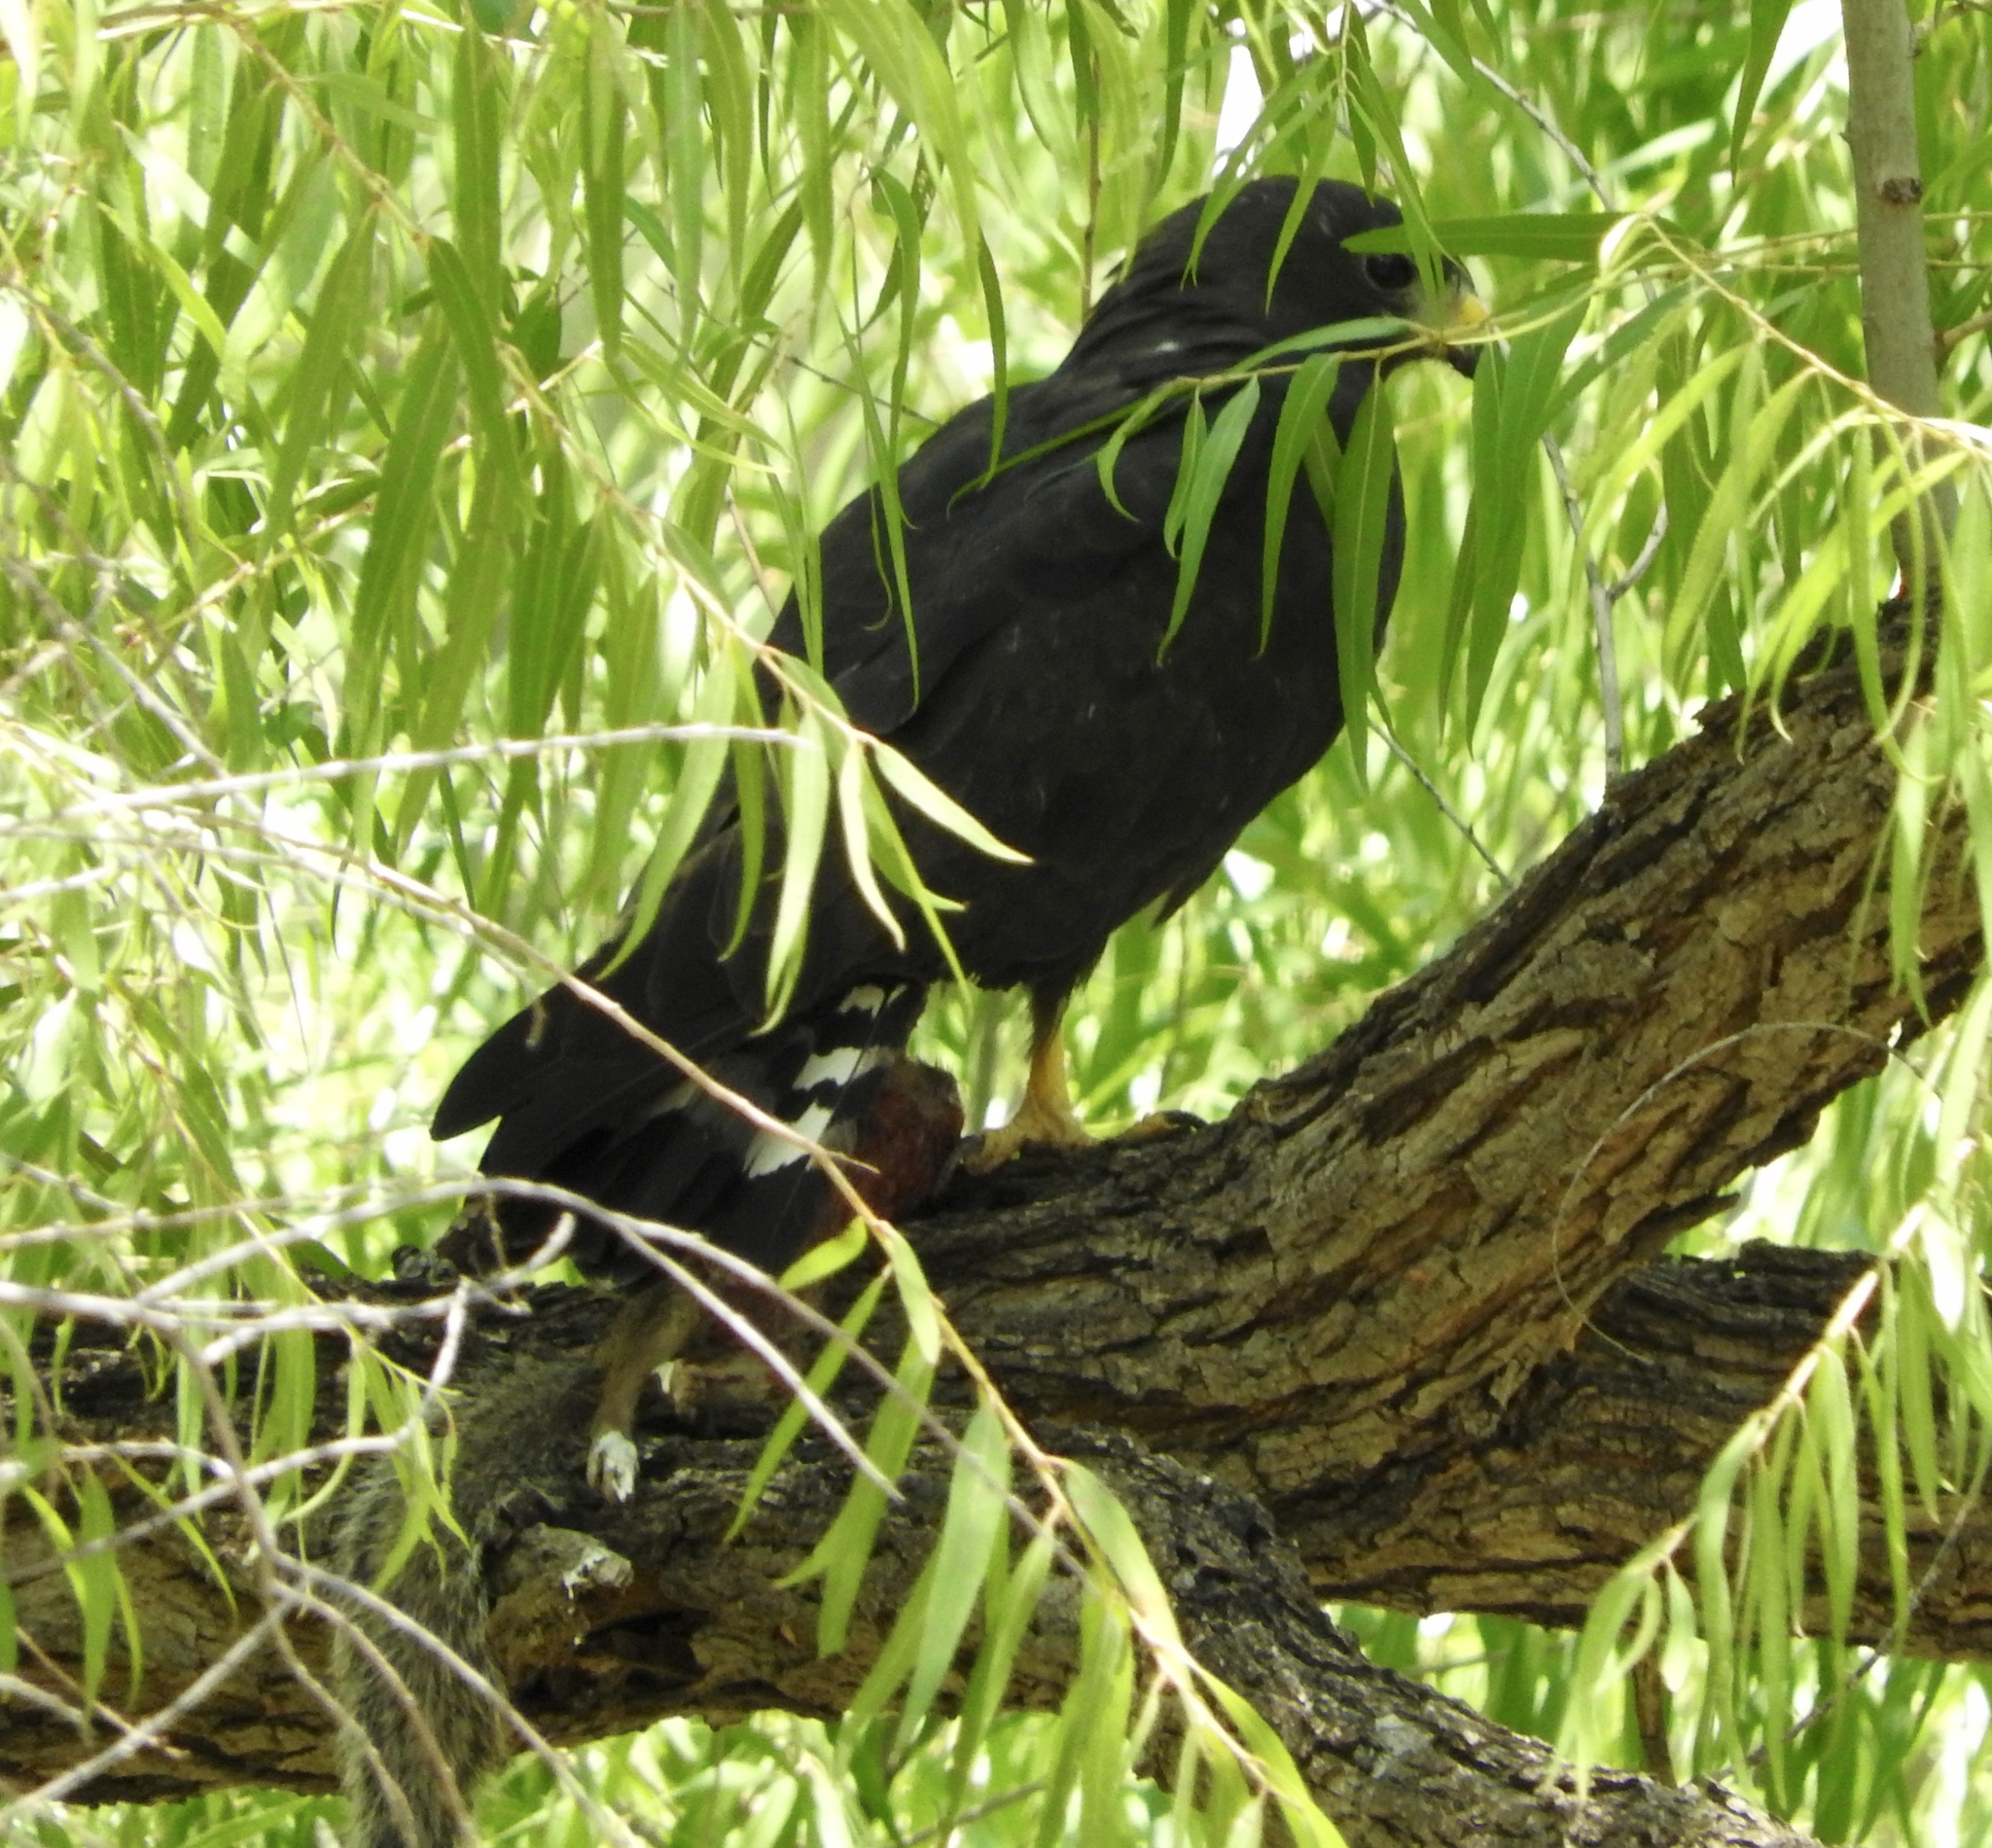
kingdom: Animalia
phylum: Chordata
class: Aves
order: Accipitriformes
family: Accipitridae
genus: Buteo
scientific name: Buteo albonotatus
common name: Zone-tailed hawk
